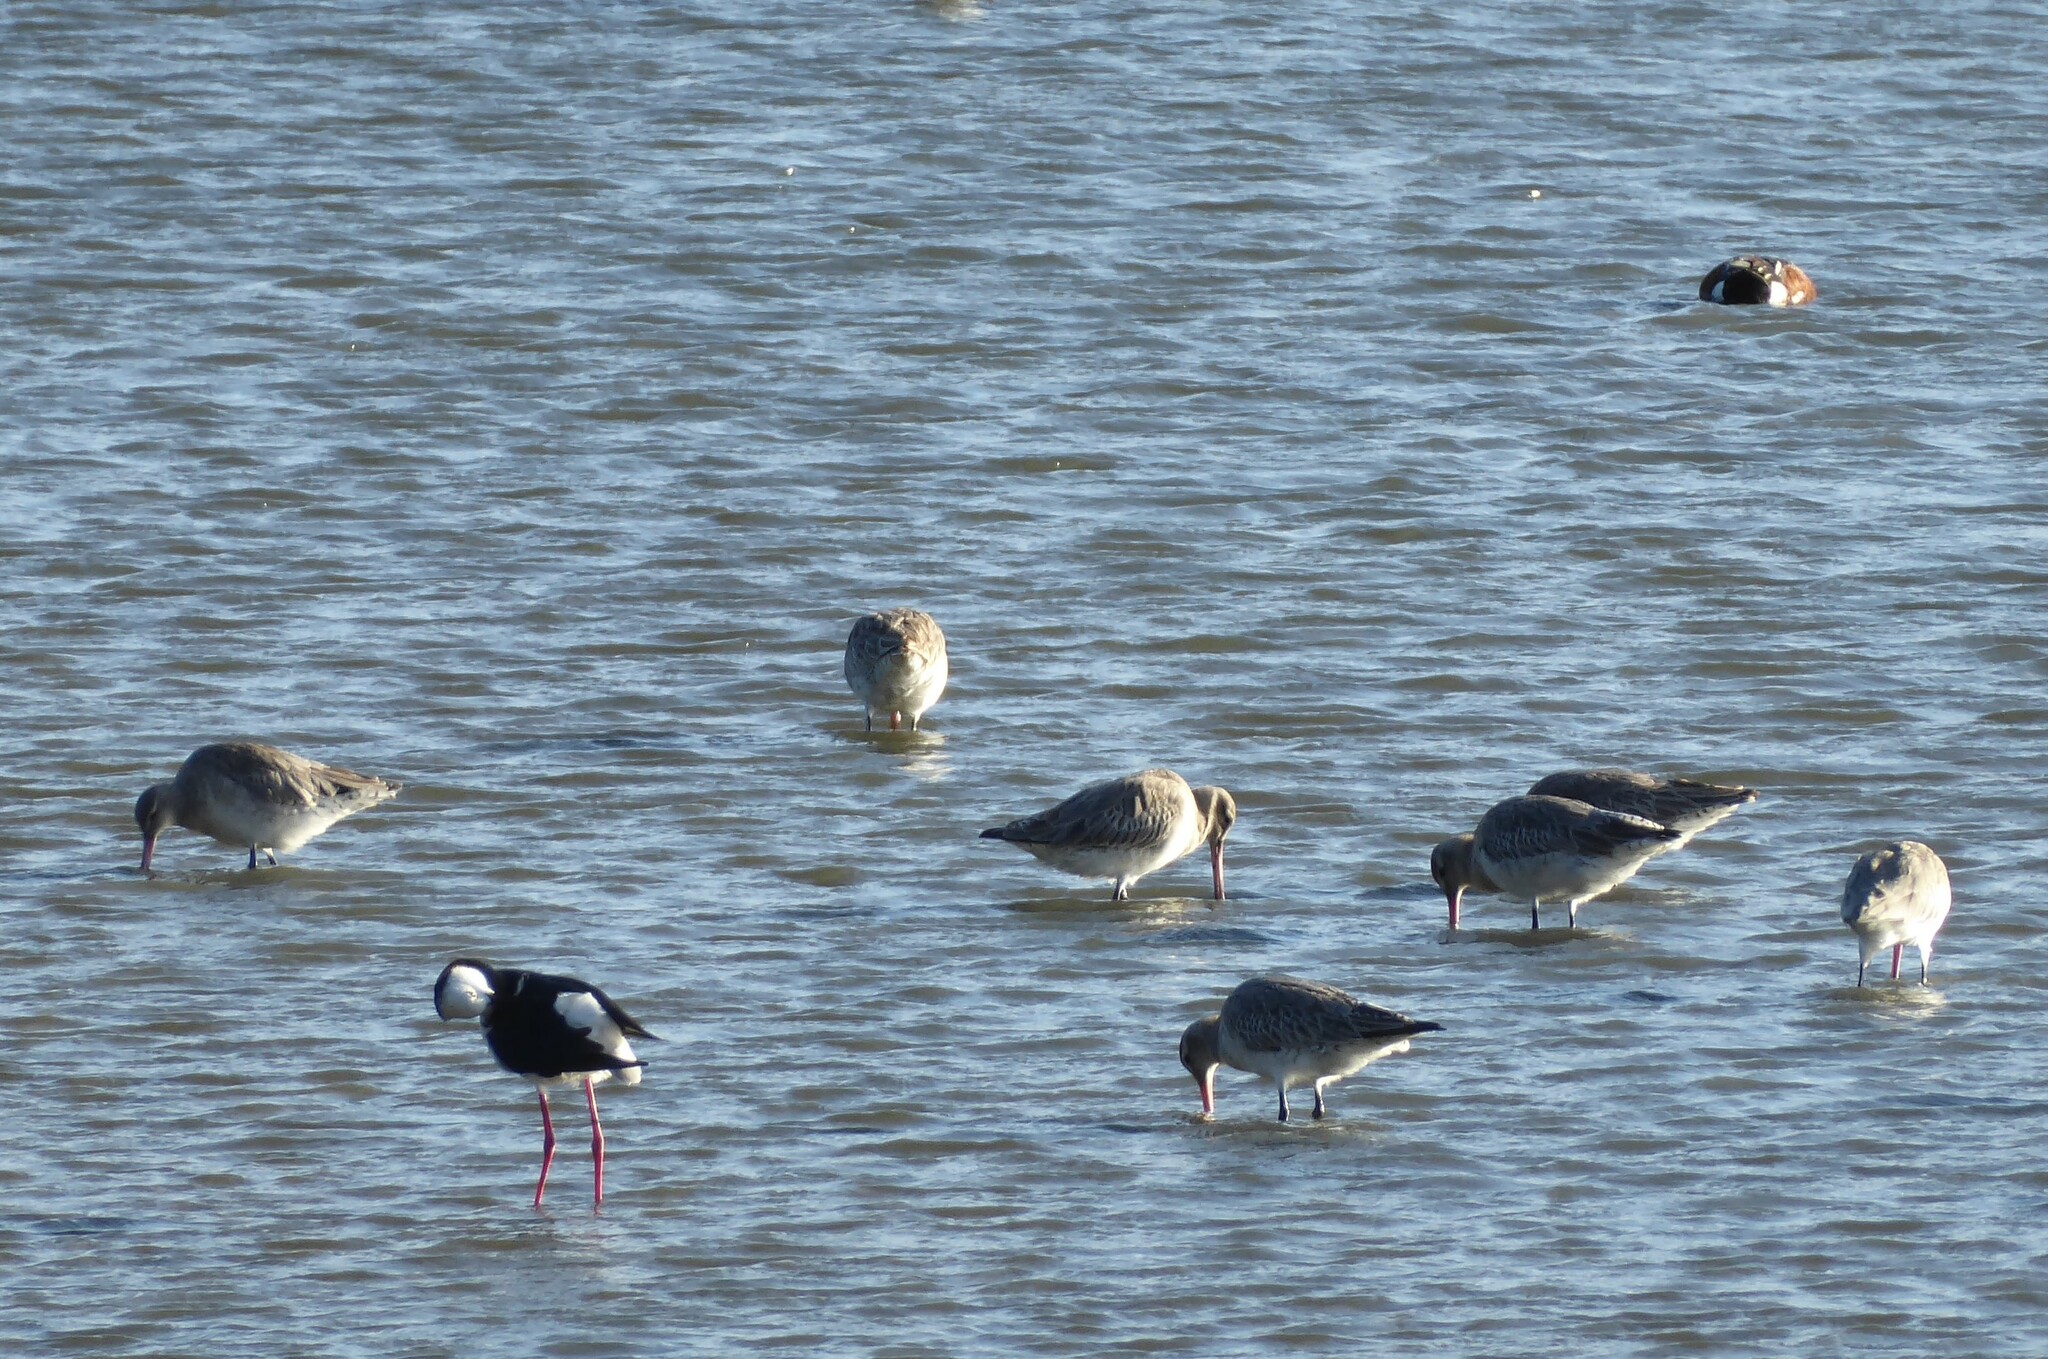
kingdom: Animalia
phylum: Chordata
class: Aves
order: Charadriiformes
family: Scolopacidae
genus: Limosa
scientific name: Limosa lapponica
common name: Bar-tailed godwit
